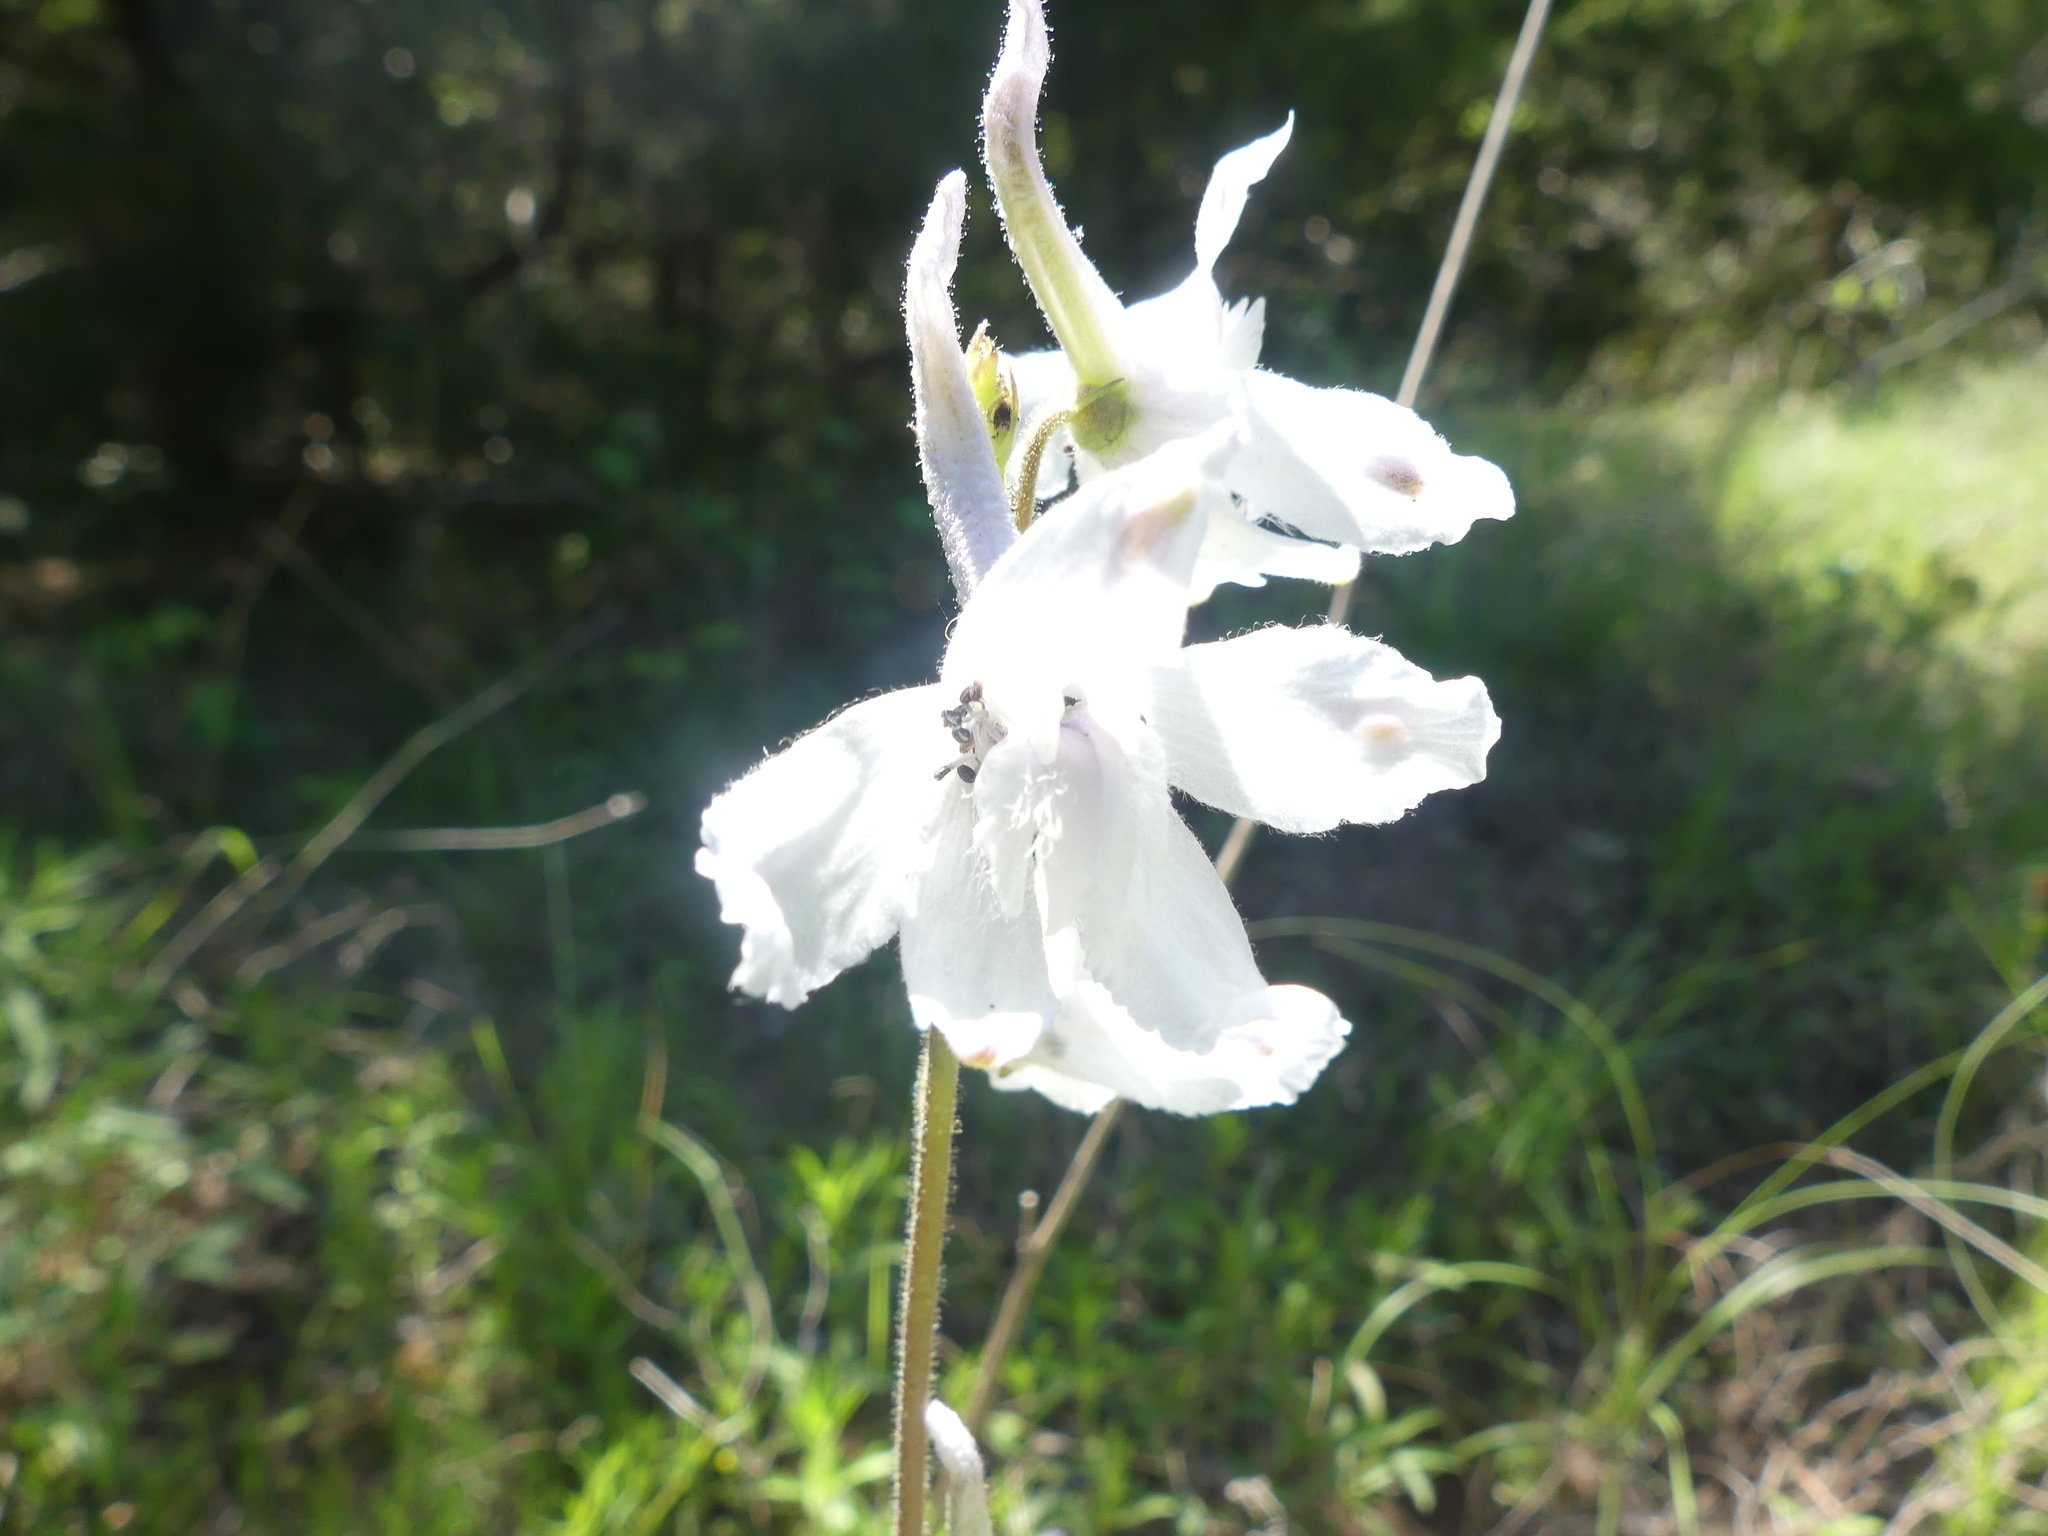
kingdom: Plantae
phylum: Tracheophyta
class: Magnoliopsida
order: Ranunculales
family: Ranunculaceae
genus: Delphinium
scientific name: Delphinium carolinianum
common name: Carolina larkspur
